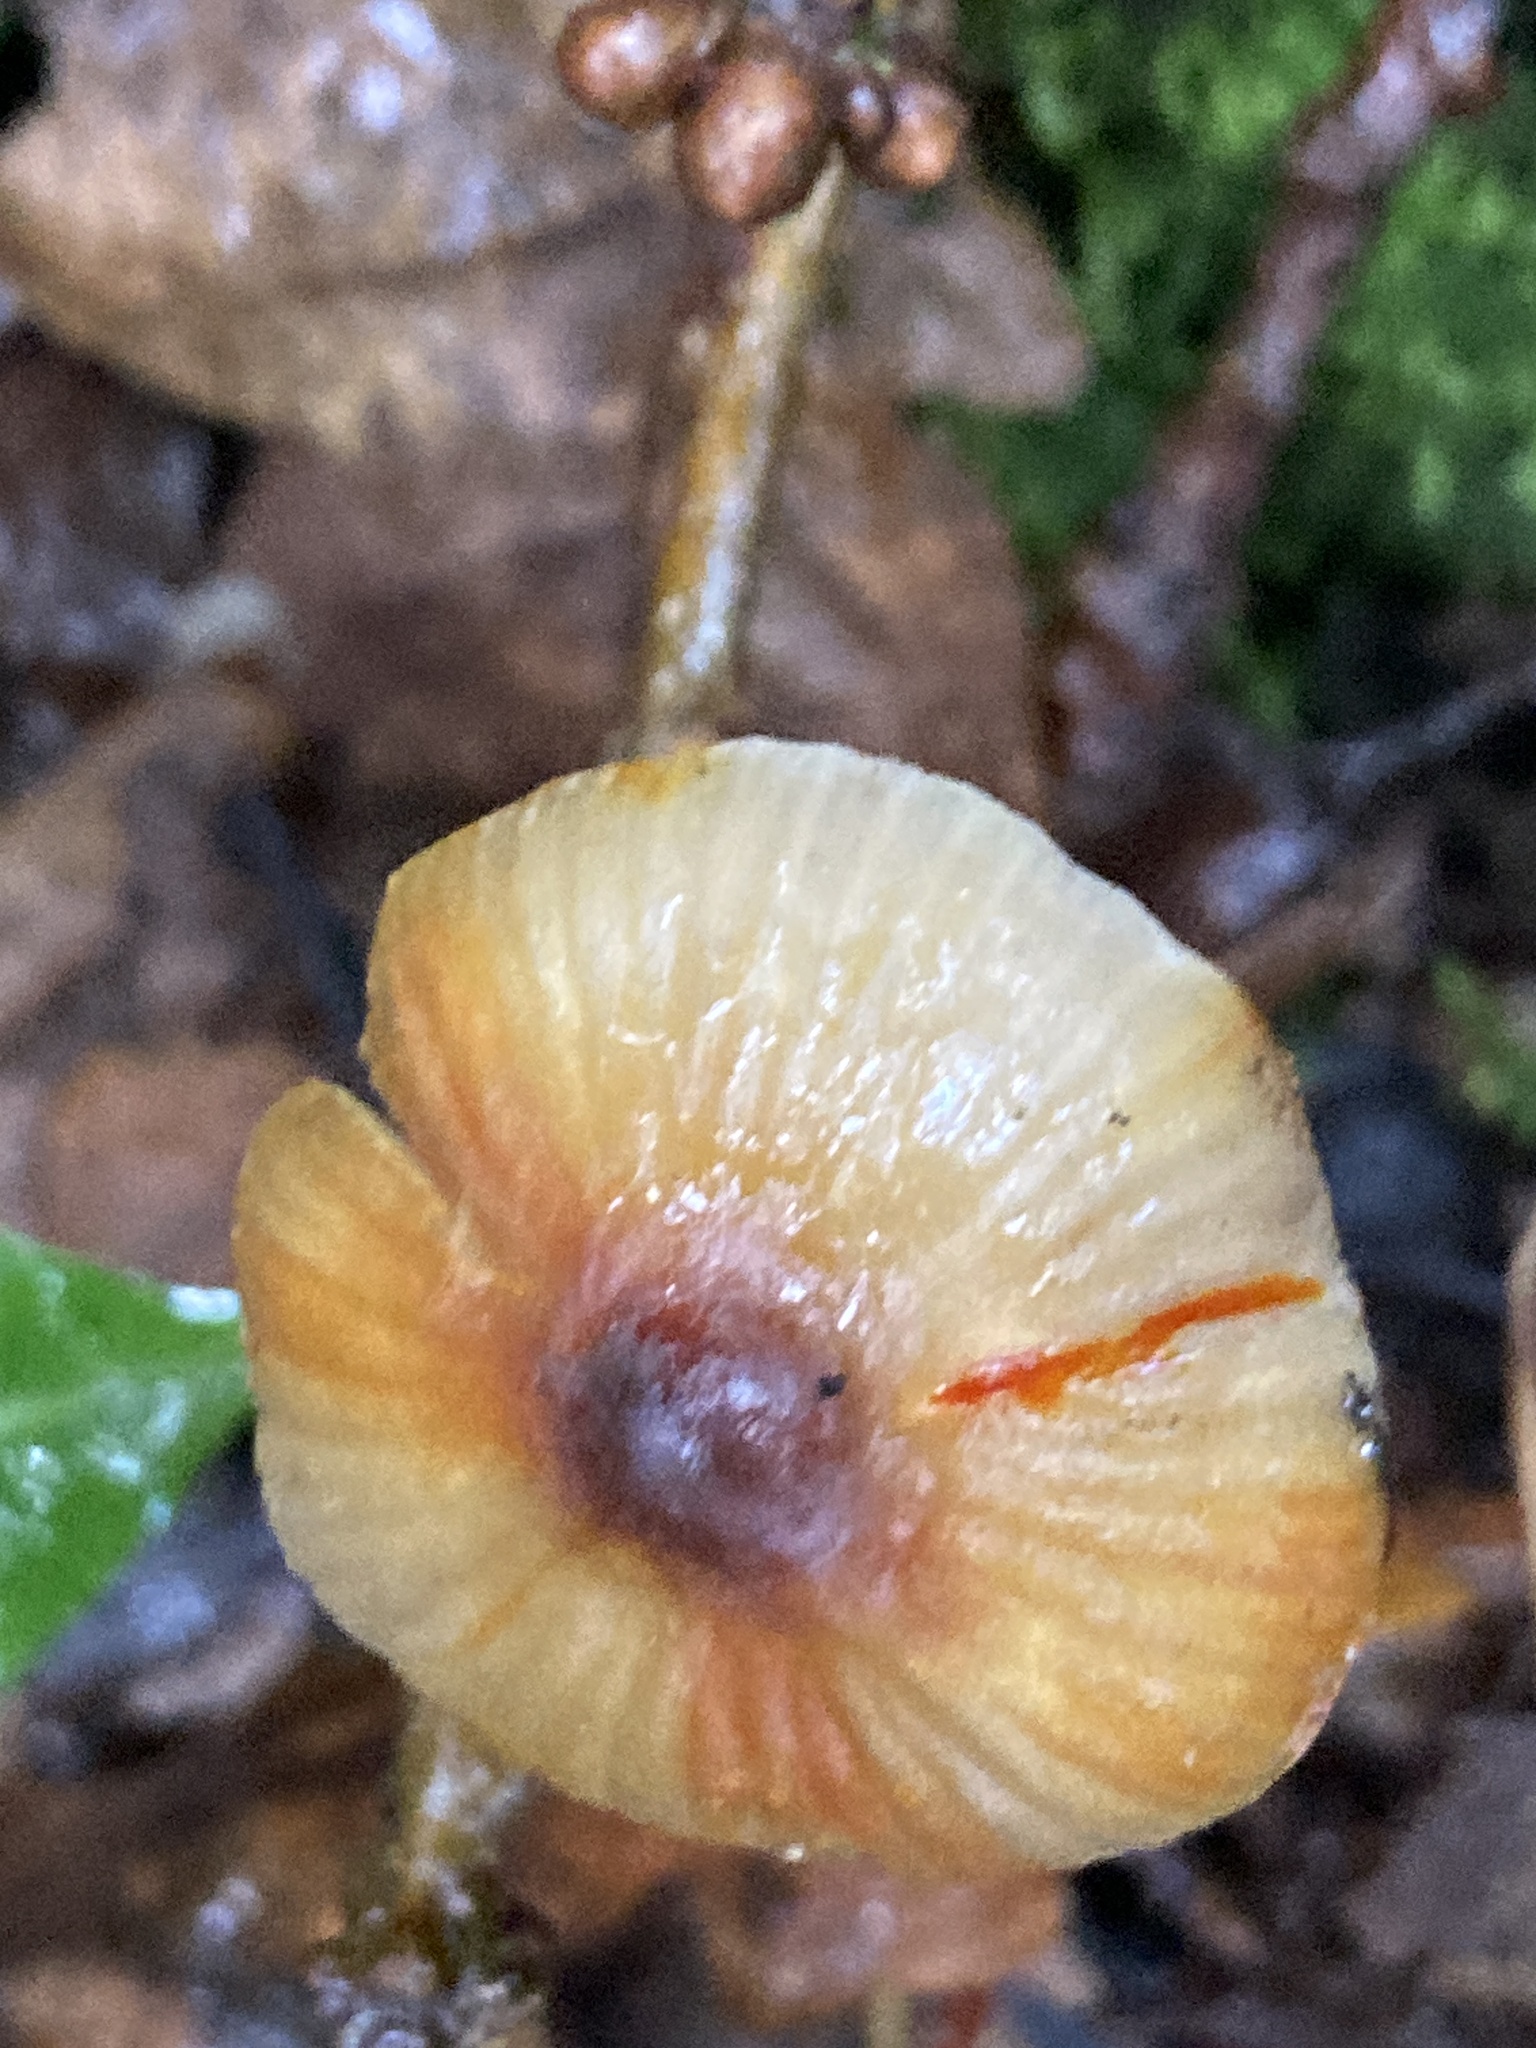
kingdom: Fungi
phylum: Basidiomycota
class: Agaricomycetes
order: Agaricales
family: Mycenaceae
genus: Mycena
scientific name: Mycena crocata
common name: Saffrondrop bonnet
